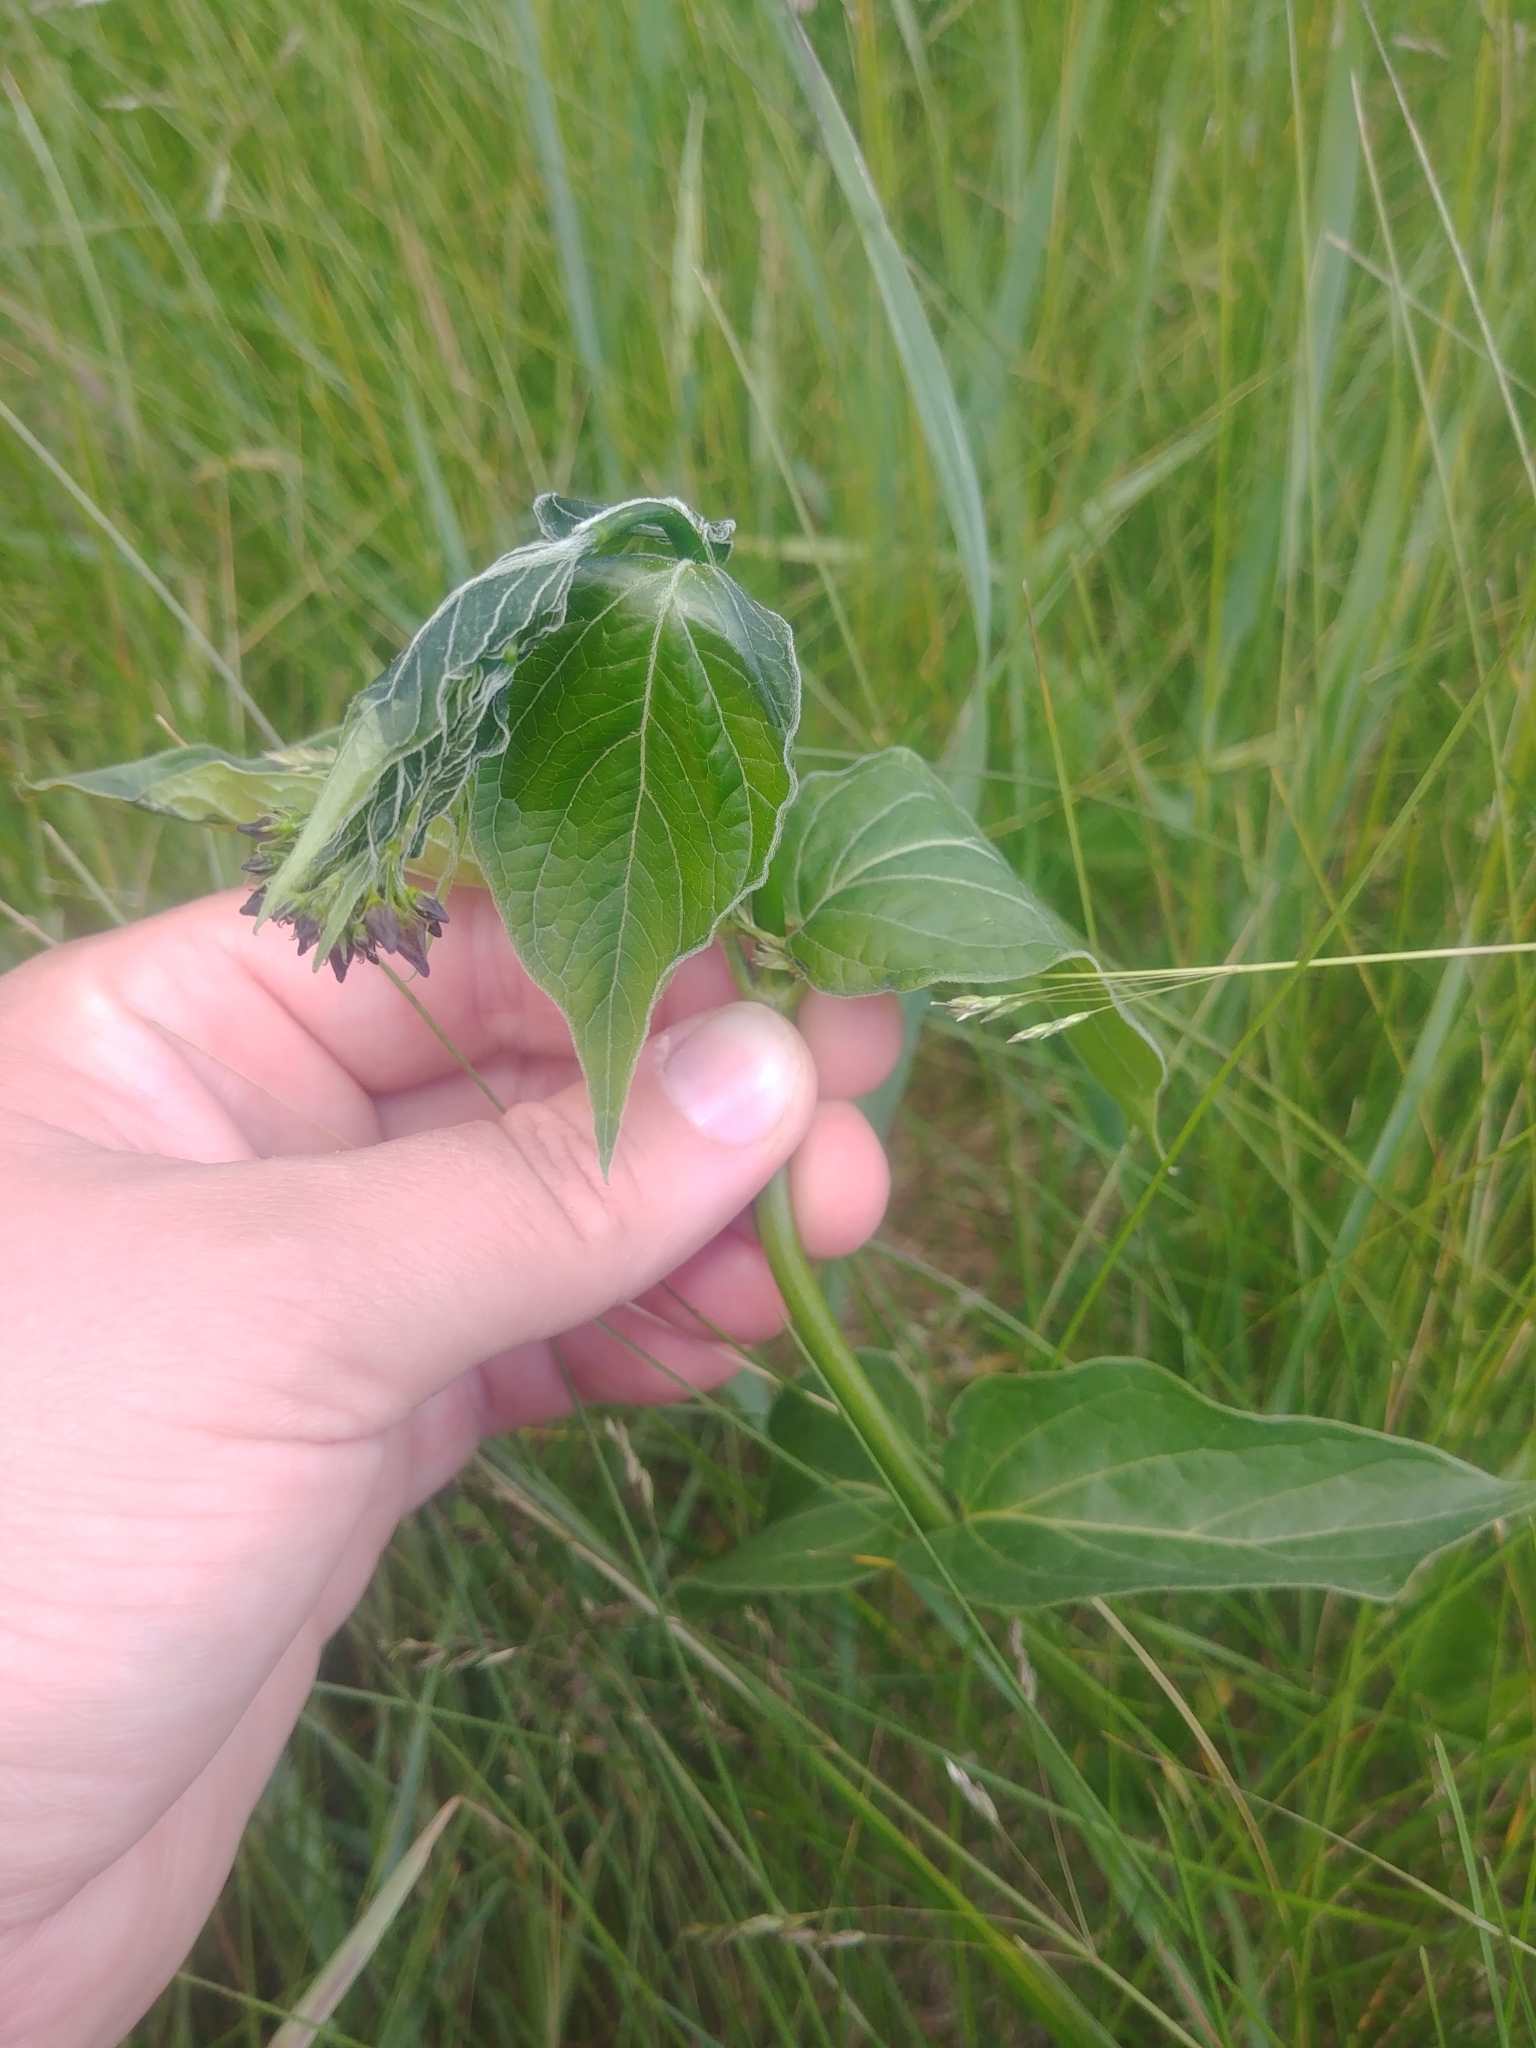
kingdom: Plantae
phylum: Tracheophyta
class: Magnoliopsida
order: Gentianales
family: Apocynaceae
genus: Vincetoxicum
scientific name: Vincetoxicum rossicum
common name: Dog-strangling vine
